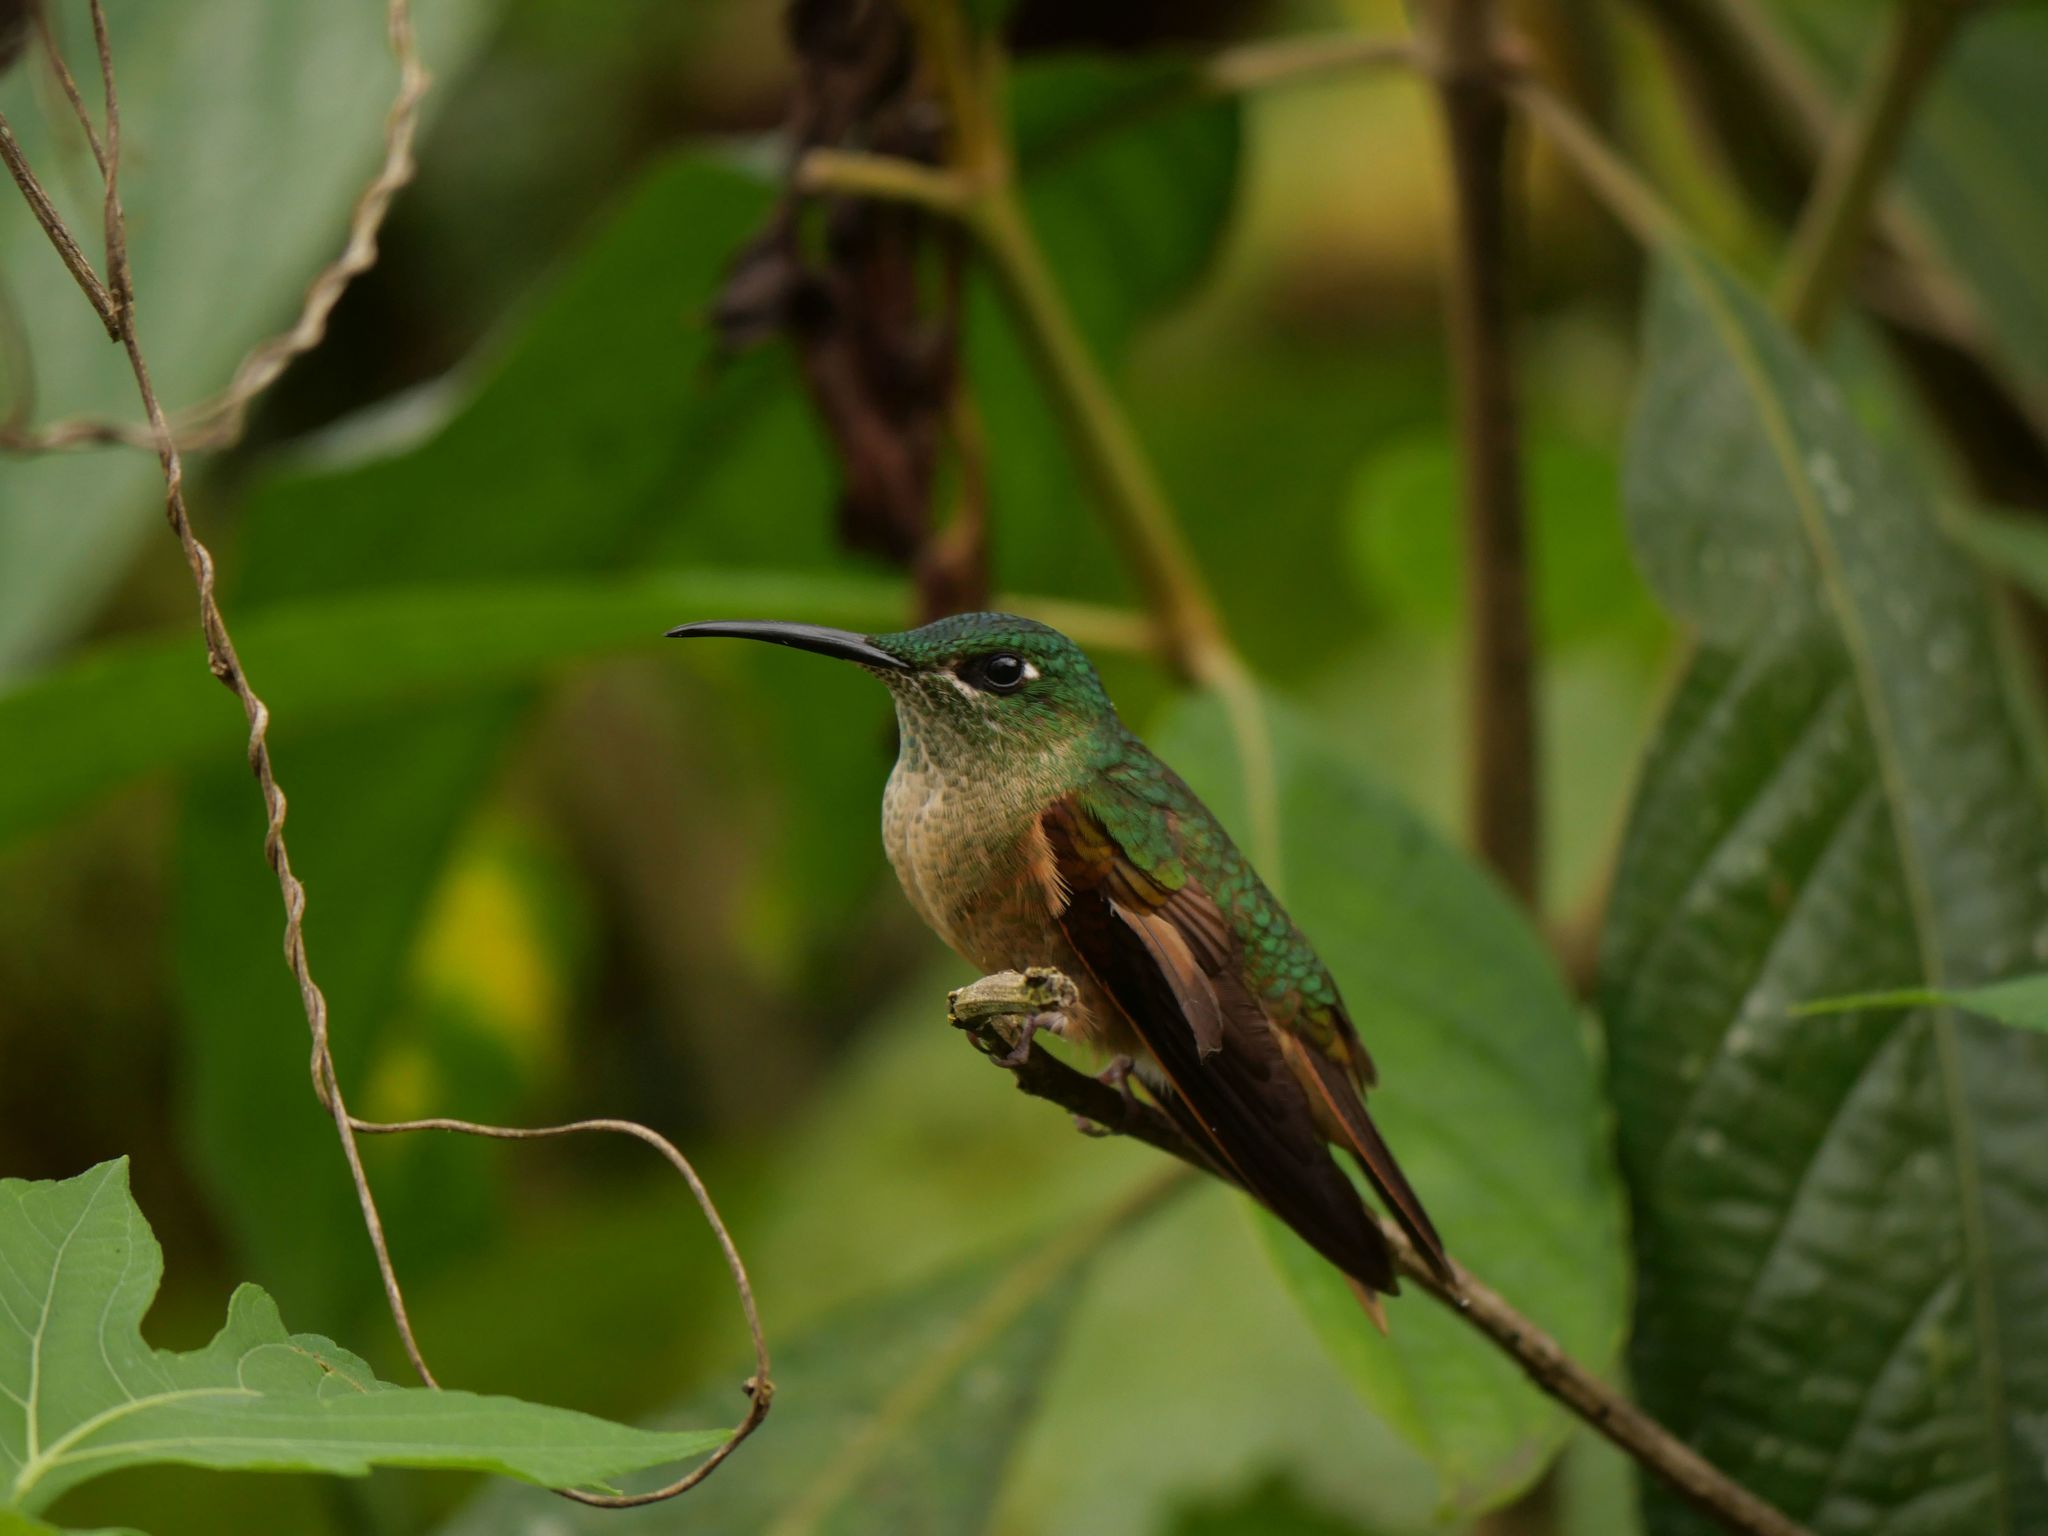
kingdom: Animalia
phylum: Chordata
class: Aves
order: Apodiformes
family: Trochilidae
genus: Heliodoxa
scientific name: Heliodoxa rubinoides
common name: Fawn-breasted brilliant
